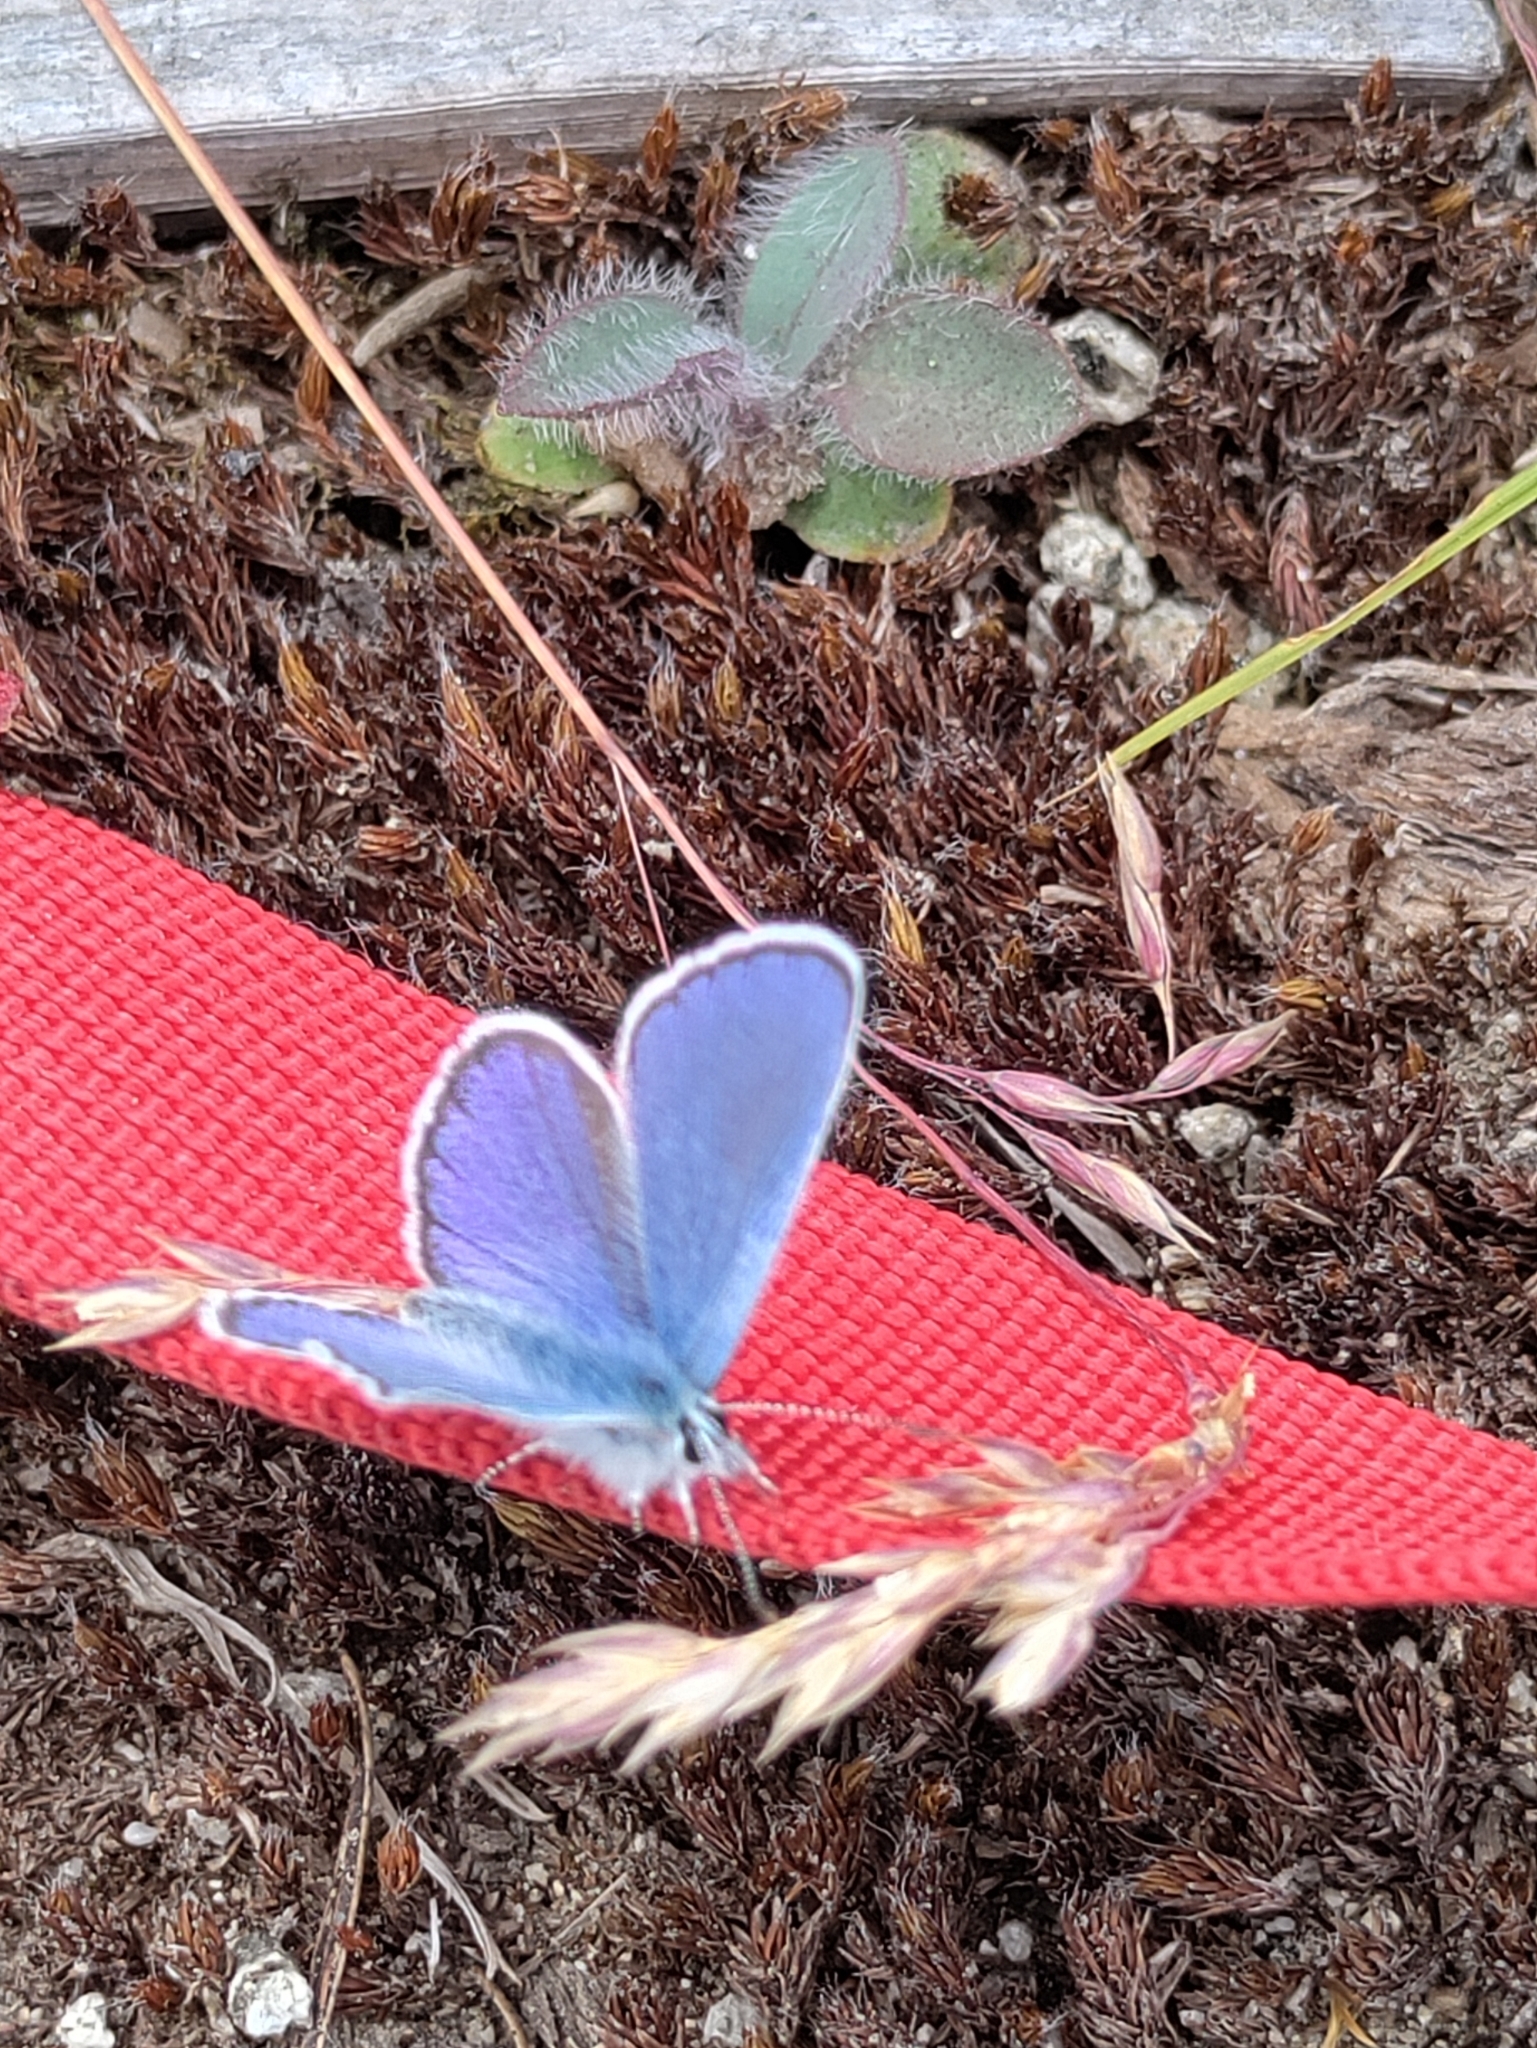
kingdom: Animalia
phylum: Arthropoda
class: Insecta
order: Lepidoptera
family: Lycaenidae
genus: Lycaeides
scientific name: Lycaeides anna
